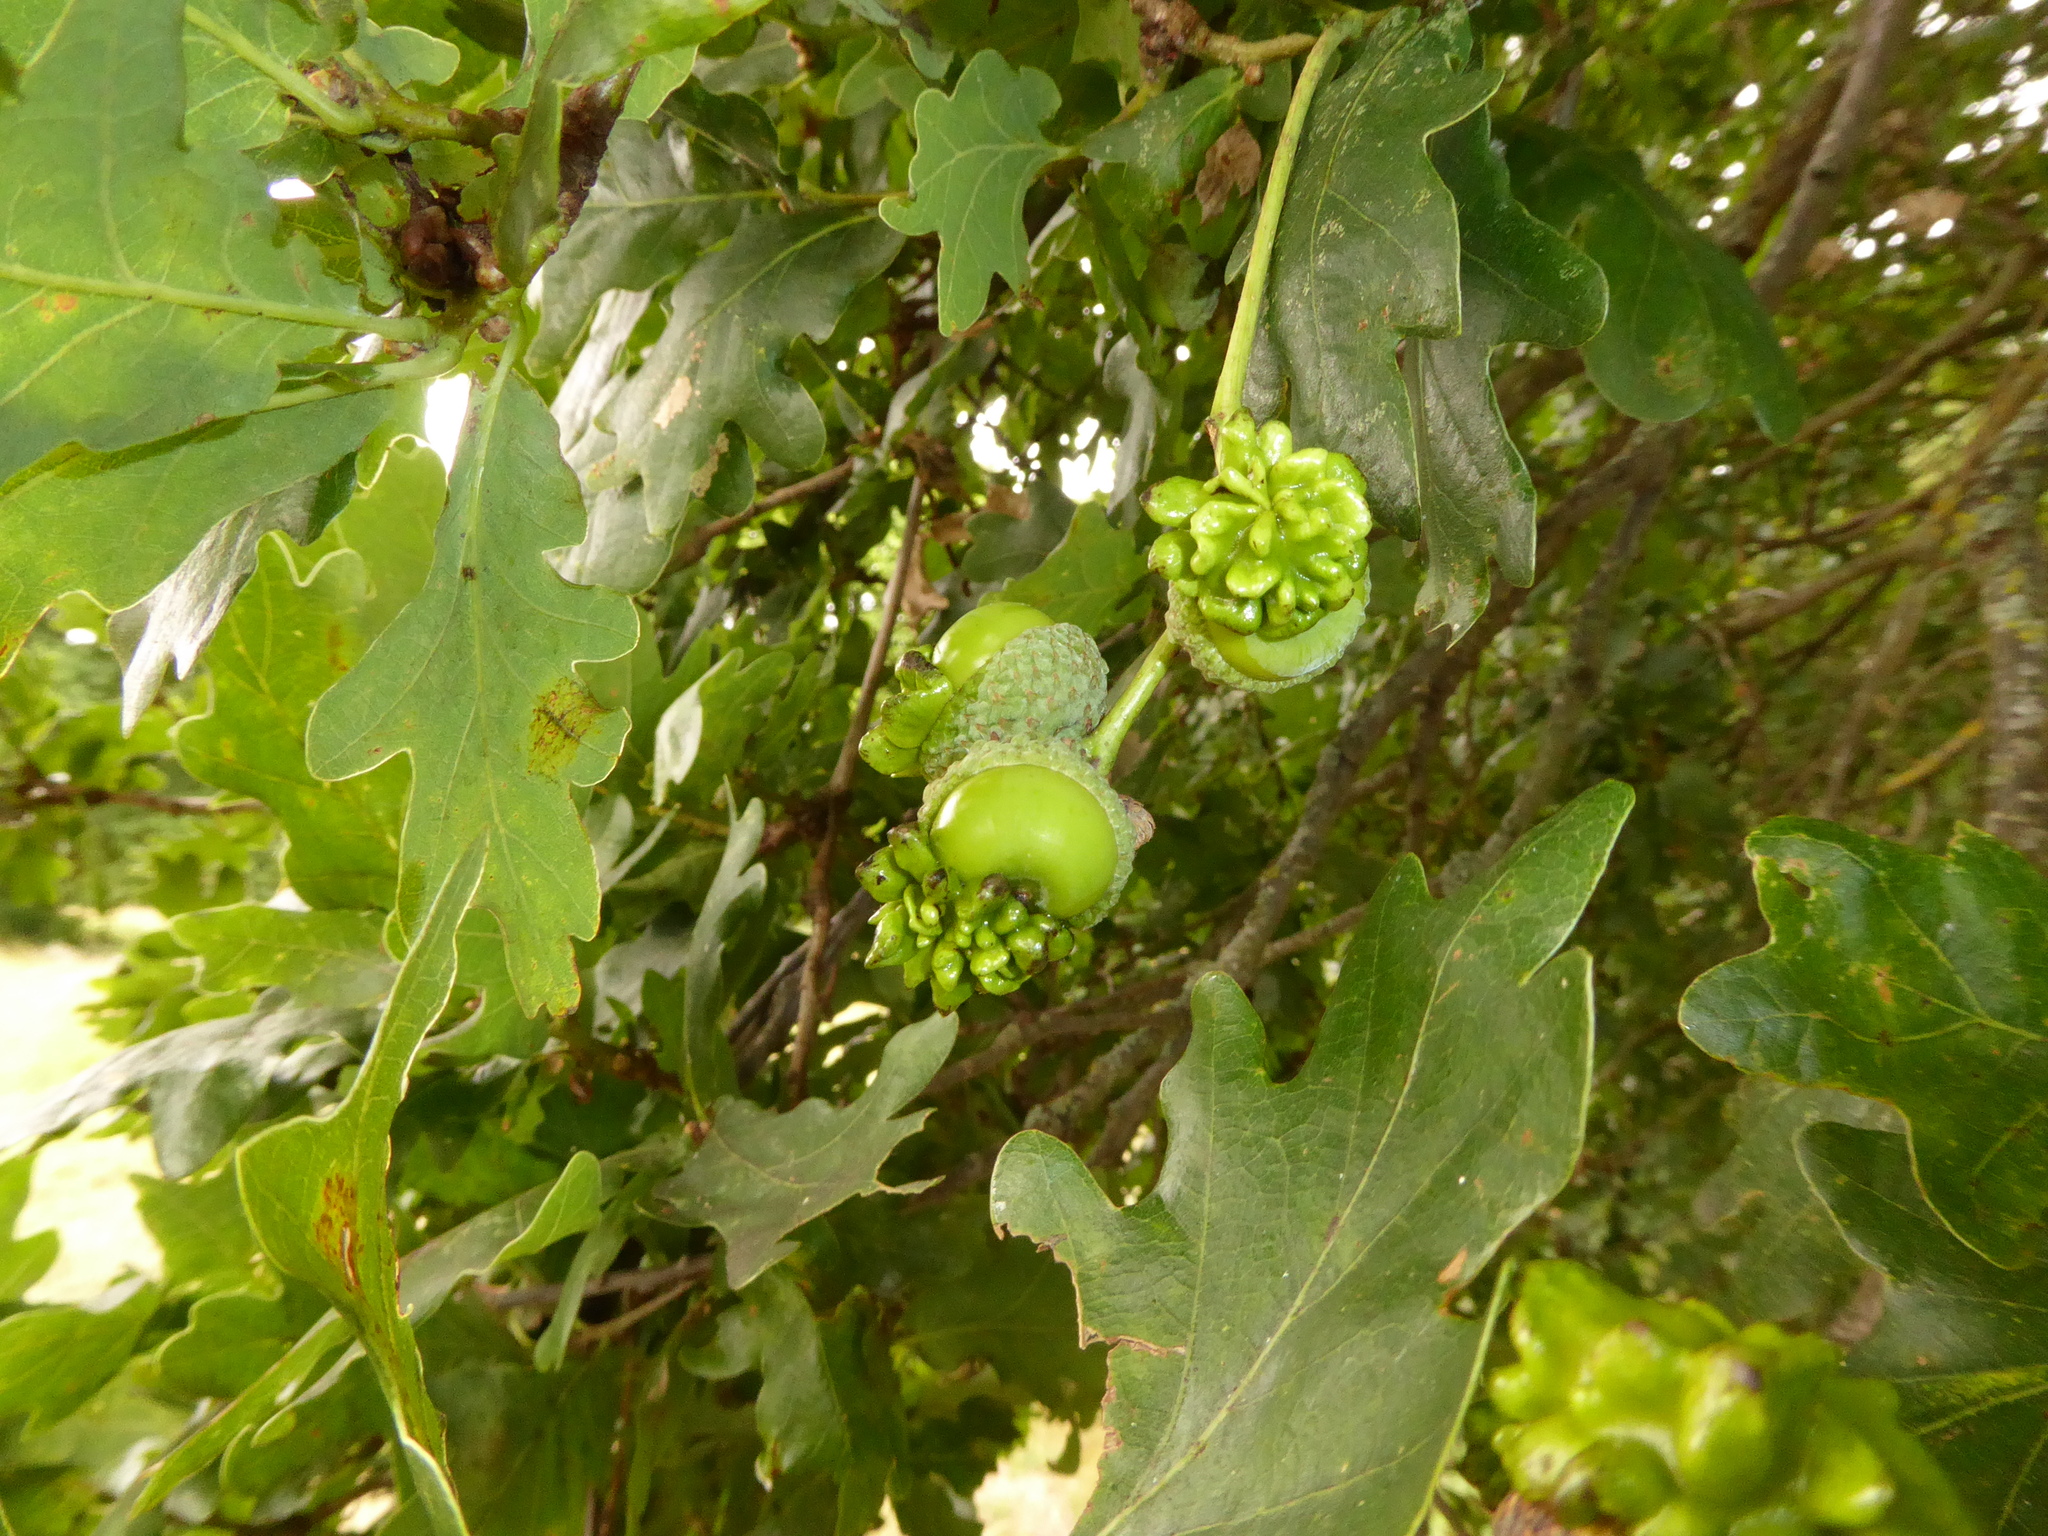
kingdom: Animalia
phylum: Arthropoda
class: Insecta
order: Hymenoptera
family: Cynipidae
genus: Andricus
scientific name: Andricus quercuscalicis
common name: Knopper gall
